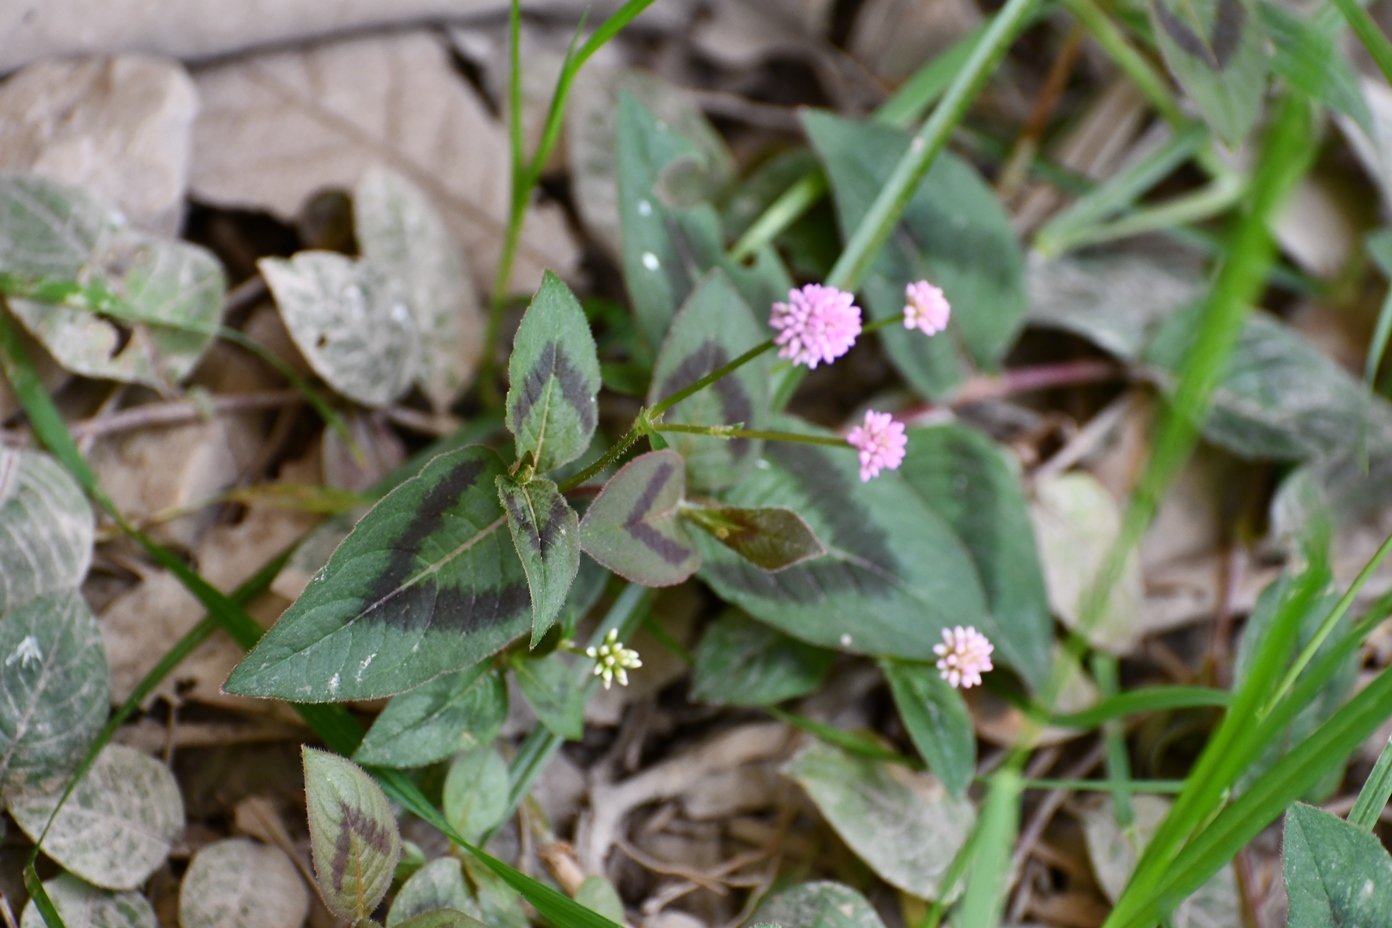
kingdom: Plantae
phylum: Tracheophyta
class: Magnoliopsida
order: Caryophyllales
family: Polygonaceae
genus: Persicaria
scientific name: Persicaria capitata
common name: Pinkhead smartweed
